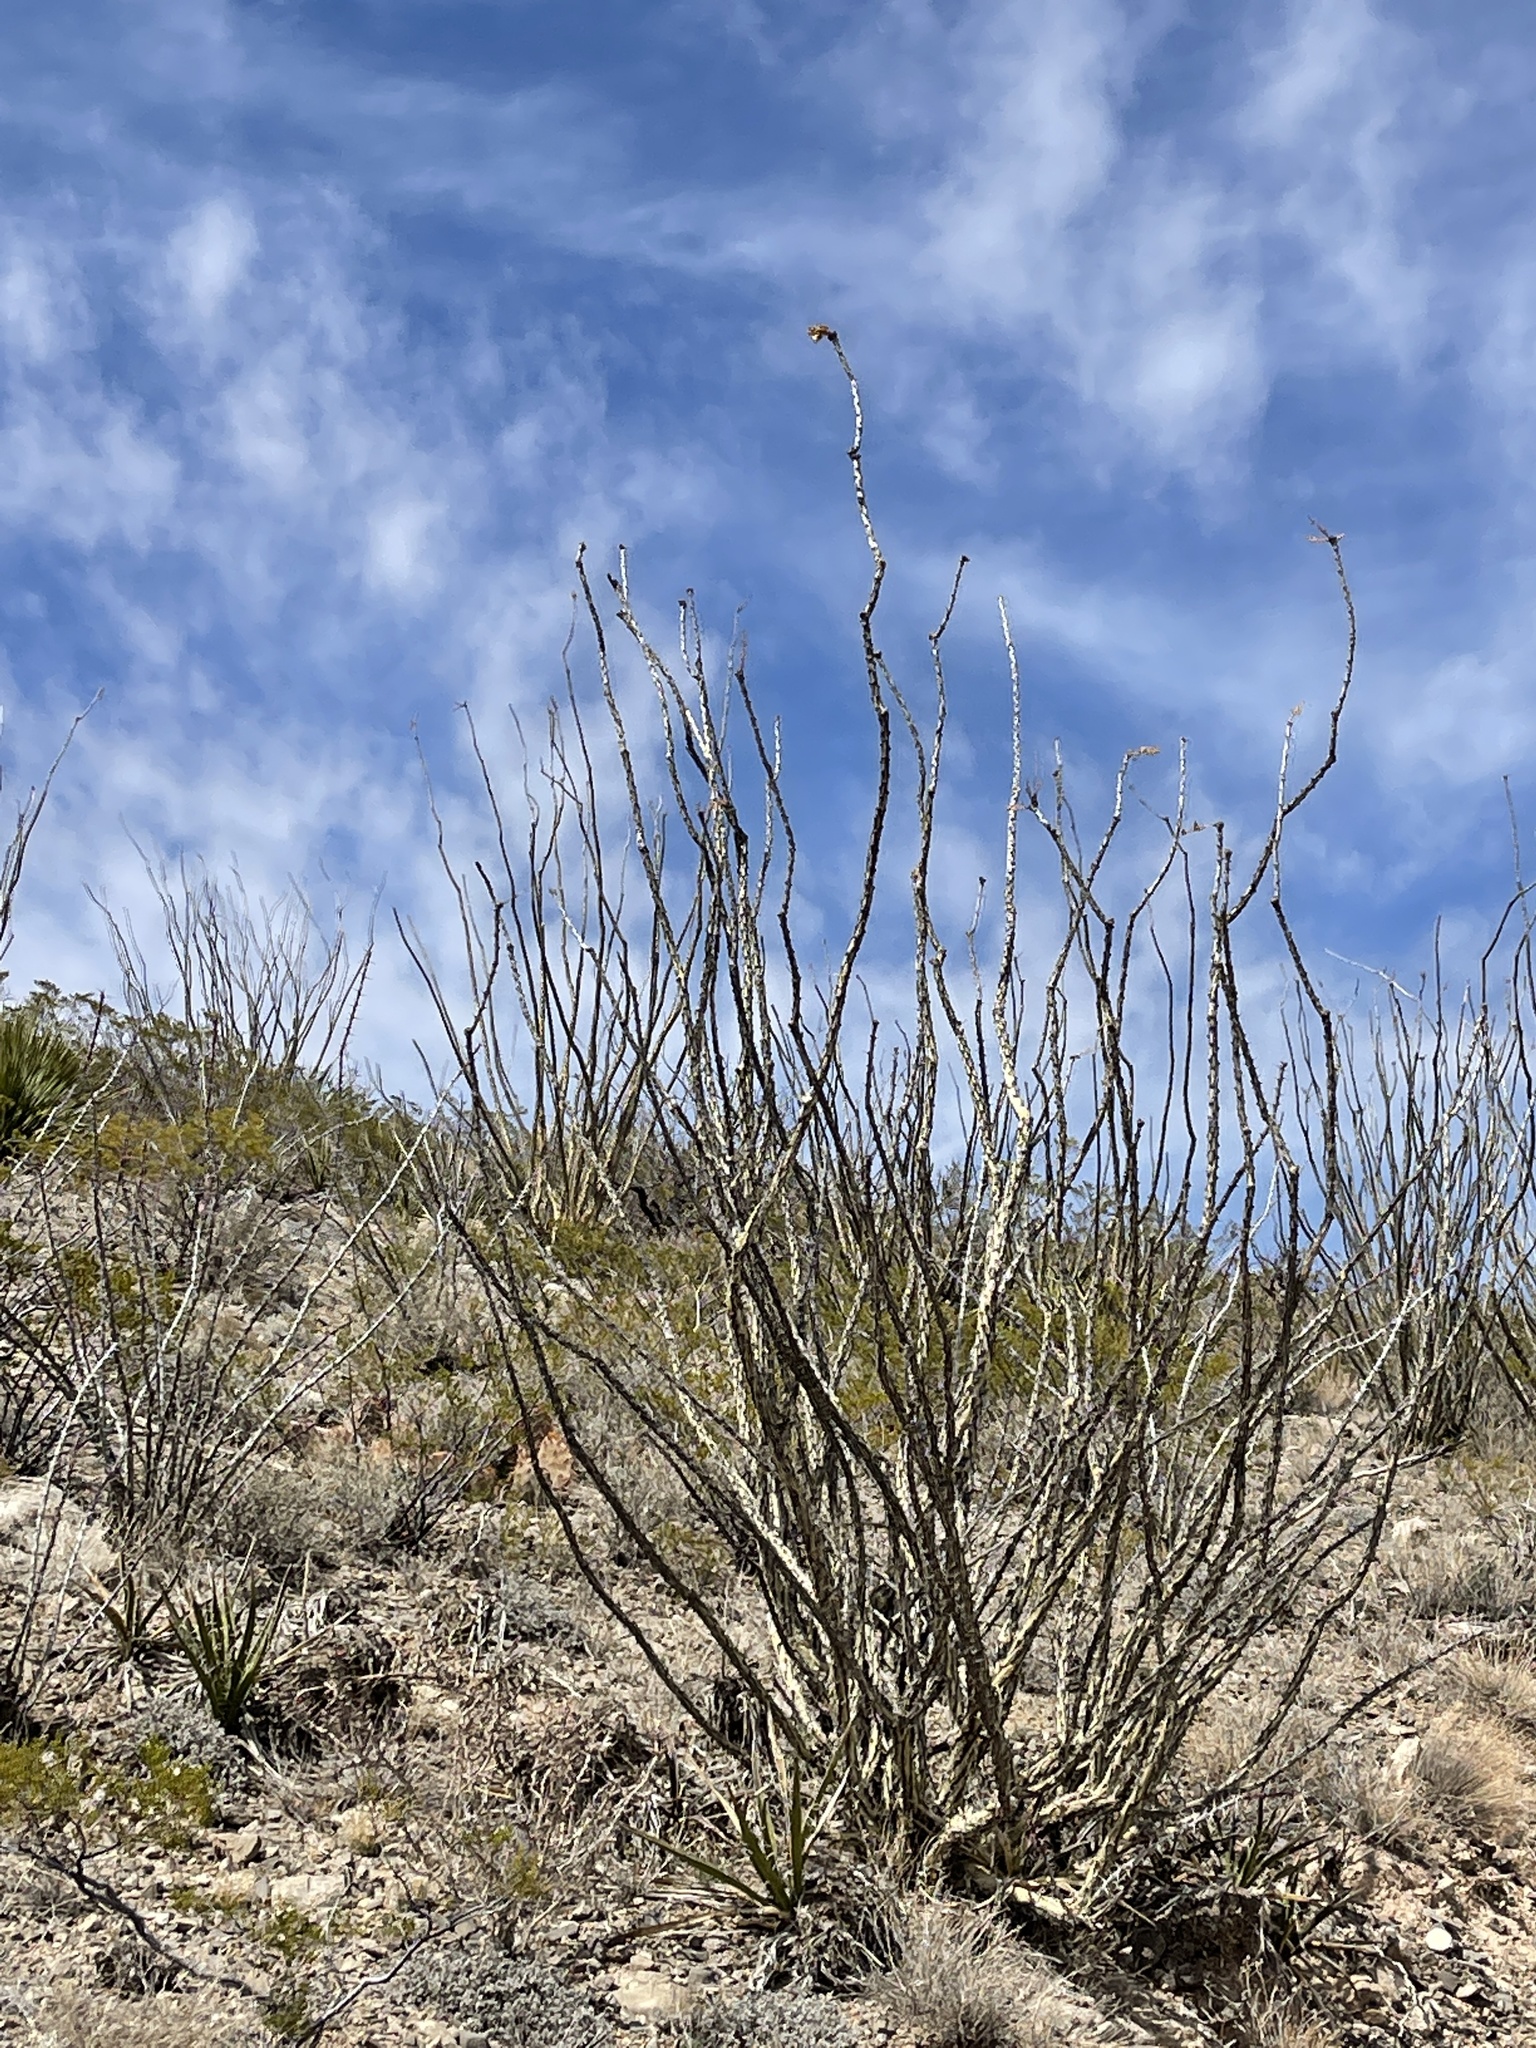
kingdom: Plantae
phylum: Tracheophyta
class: Magnoliopsida
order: Ericales
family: Fouquieriaceae
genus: Fouquieria
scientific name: Fouquieria splendens
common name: Vine-cactus
